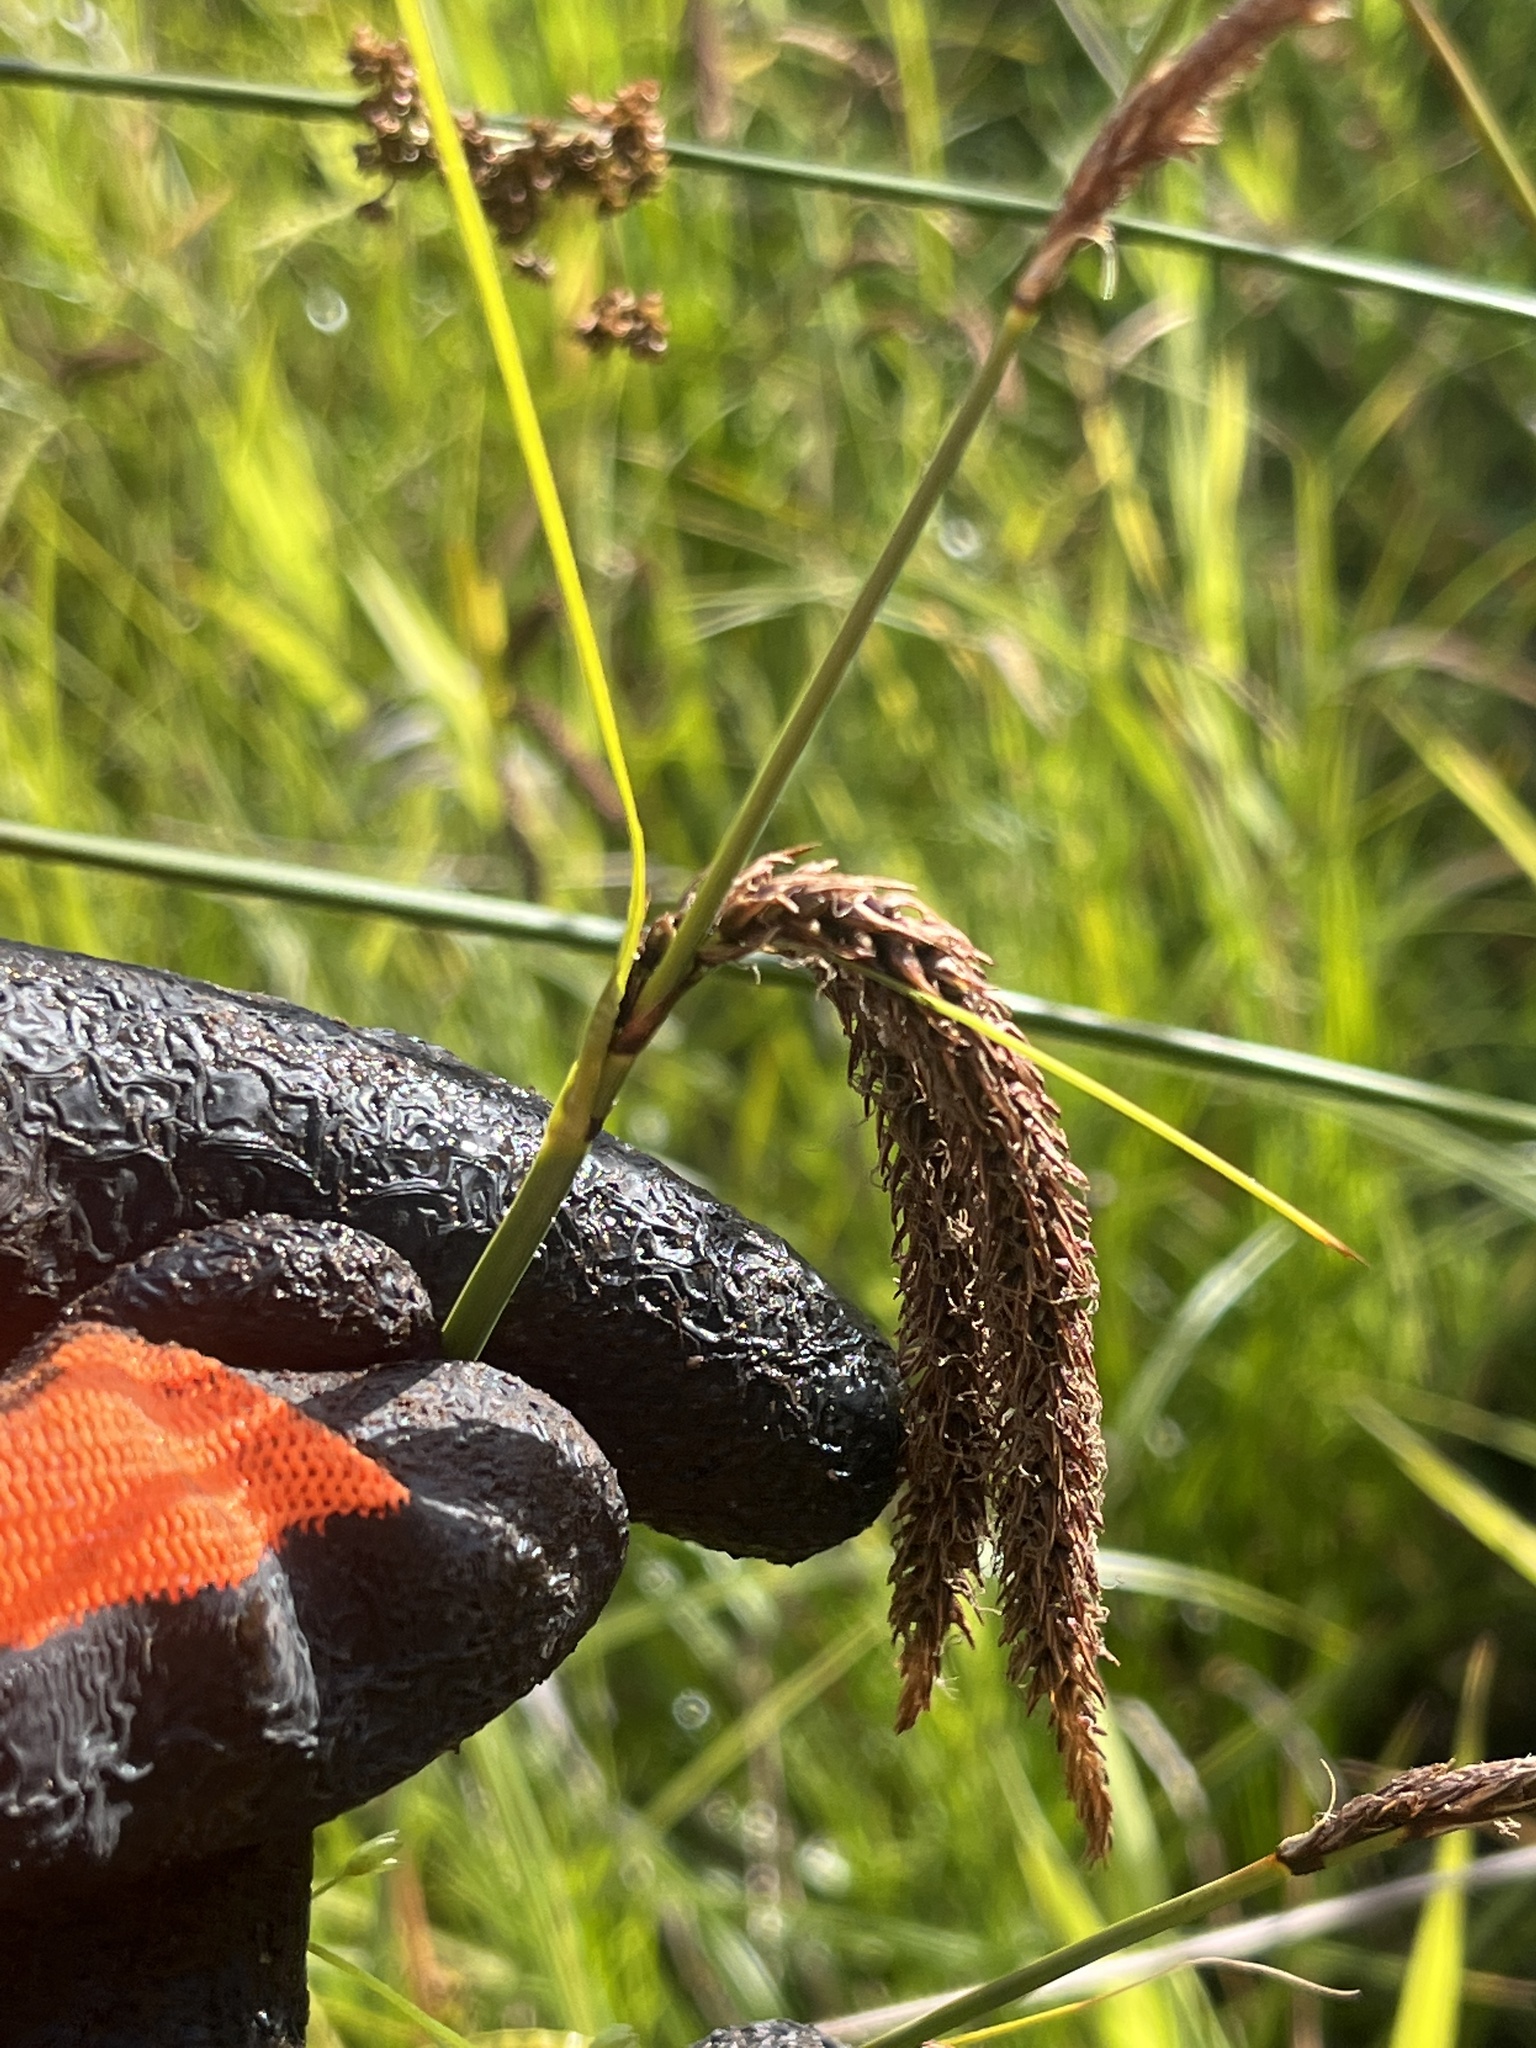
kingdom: Plantae
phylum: Tracheophyta
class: Liliopsida
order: Poales
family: Cyperaceae
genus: Carex
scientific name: Carex obnupta
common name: Slough sedge
